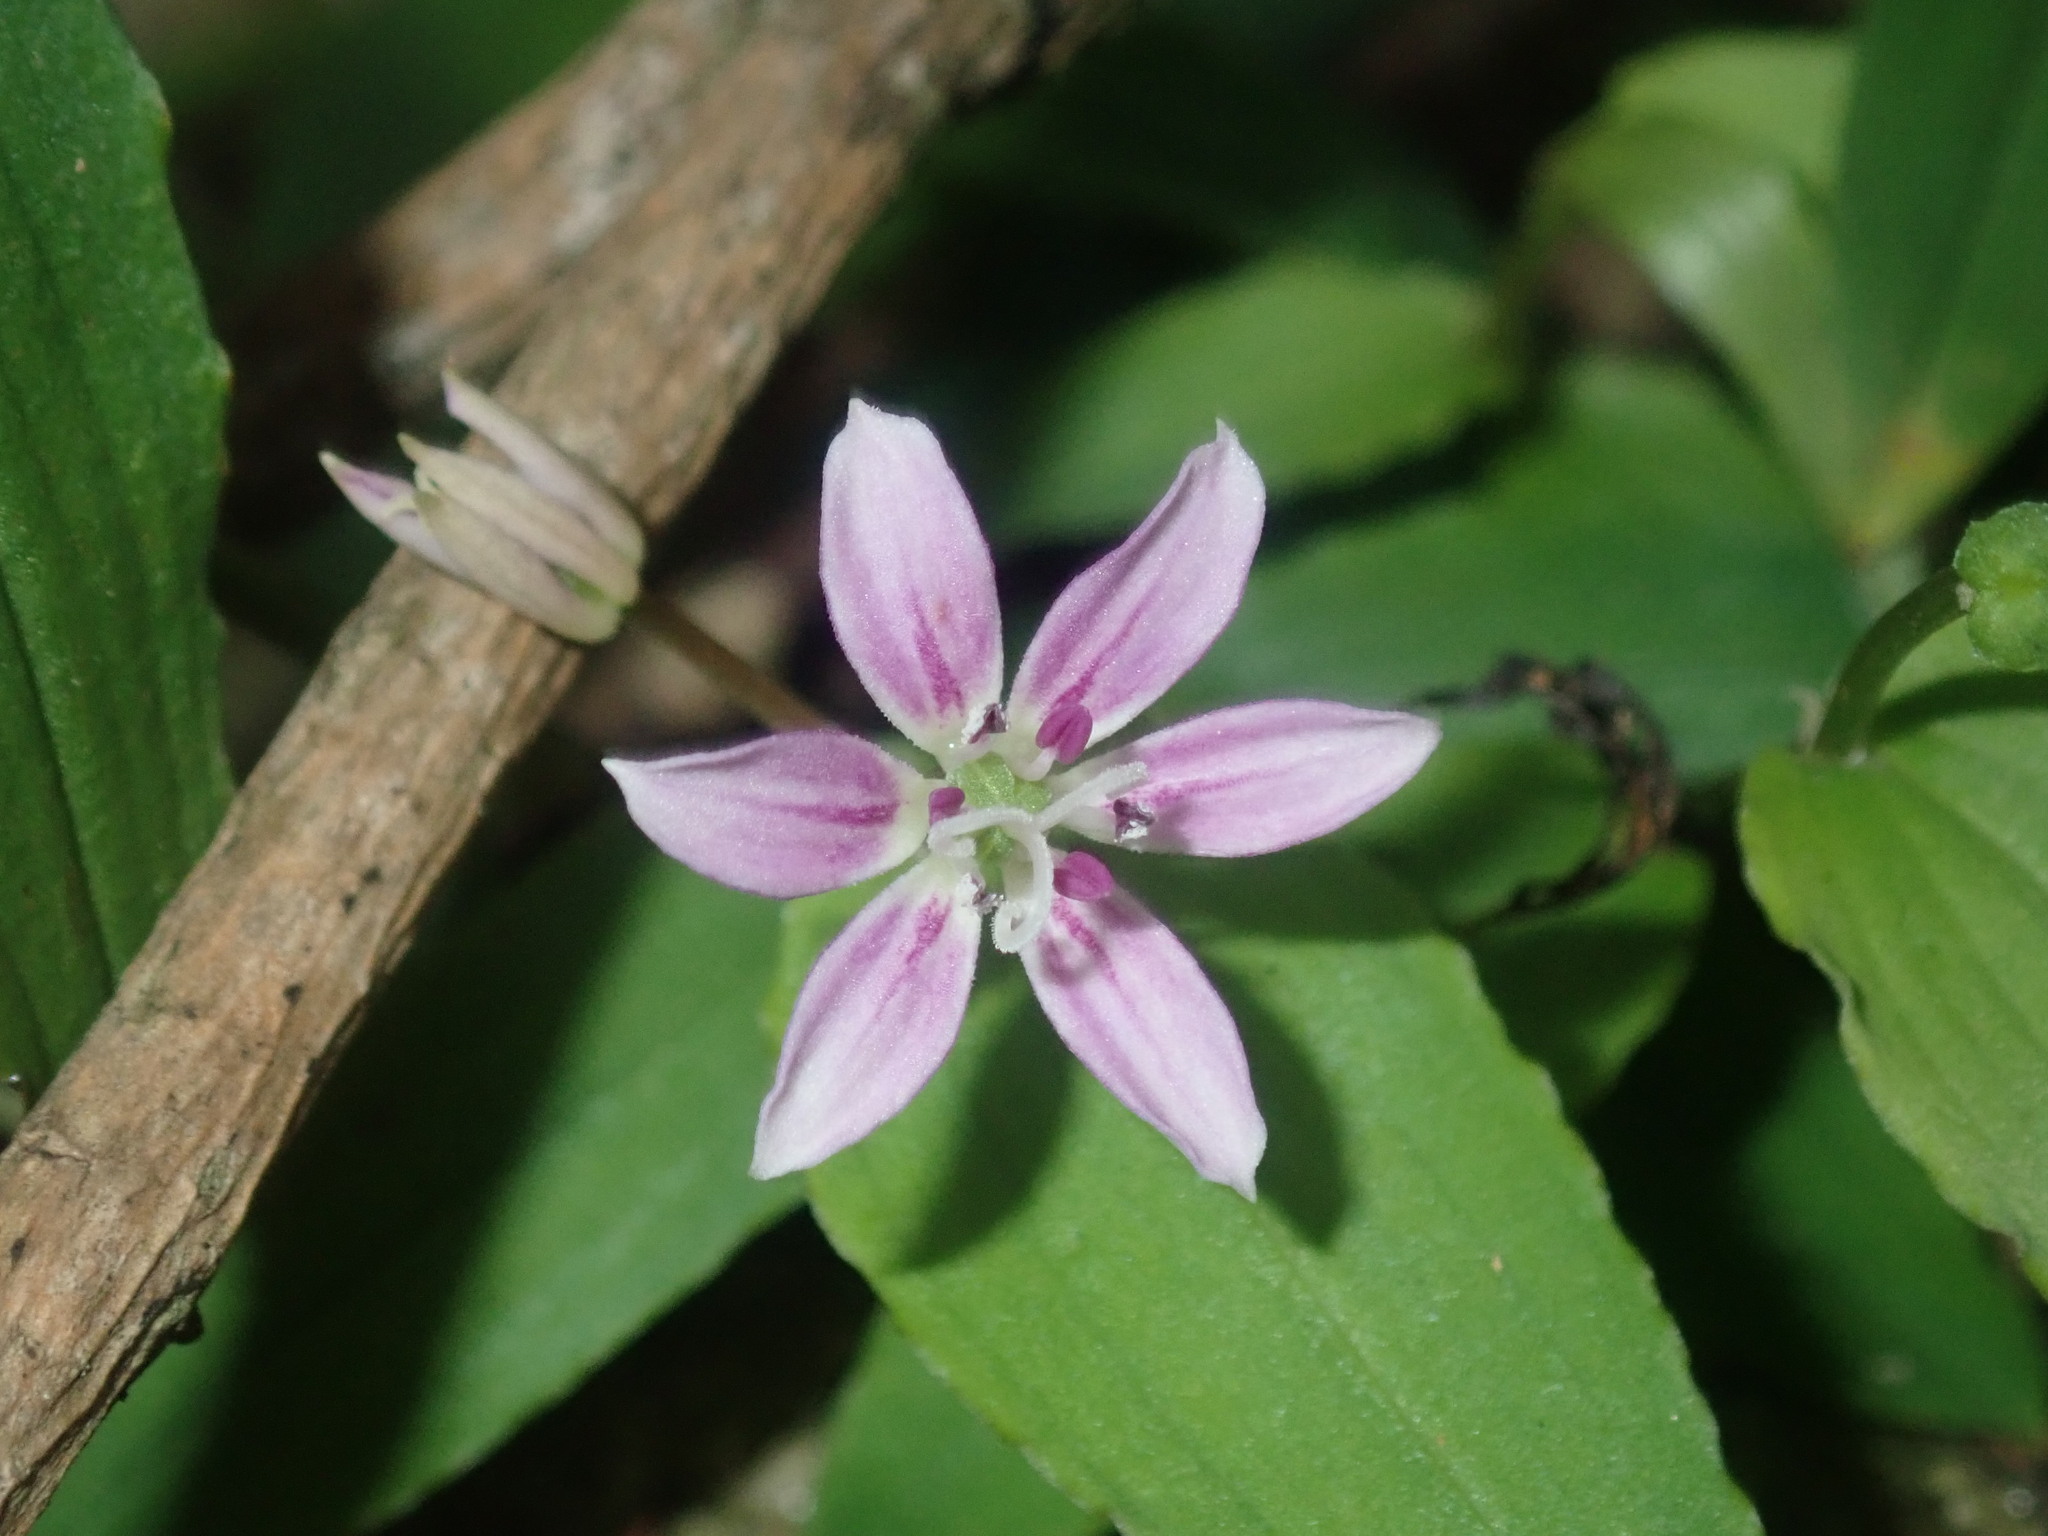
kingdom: Plantae
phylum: Tracheophyta
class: Liliopsida
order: Liliales
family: Colchicaceae
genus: Schelhammera
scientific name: Schelhammera undulata
